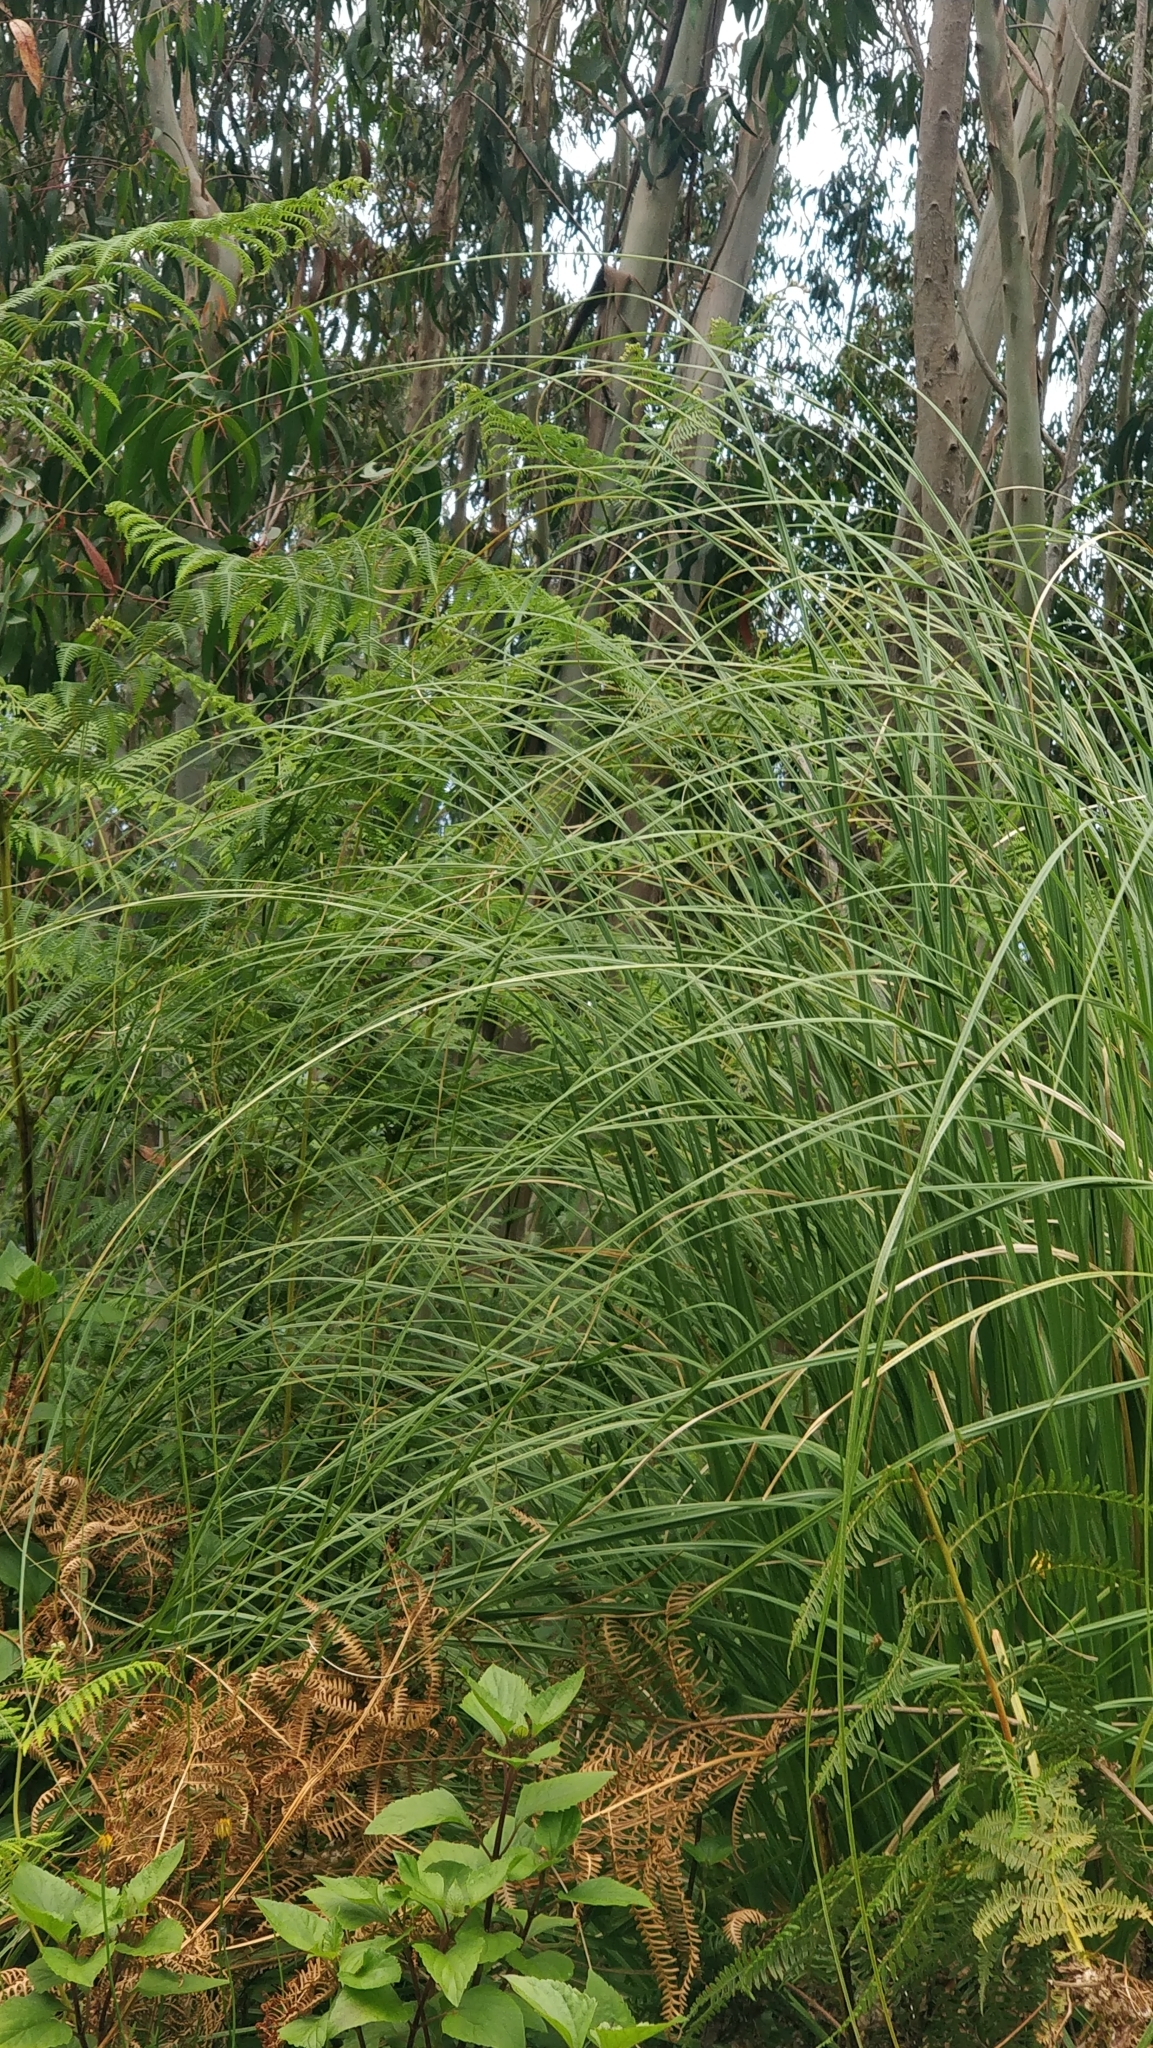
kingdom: Plantae
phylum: Tracheophyta
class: Liliopsida
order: Poales
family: Poaceae
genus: Cortaderia
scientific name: Cortaderia selloana
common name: Uruguayan pampas grass
